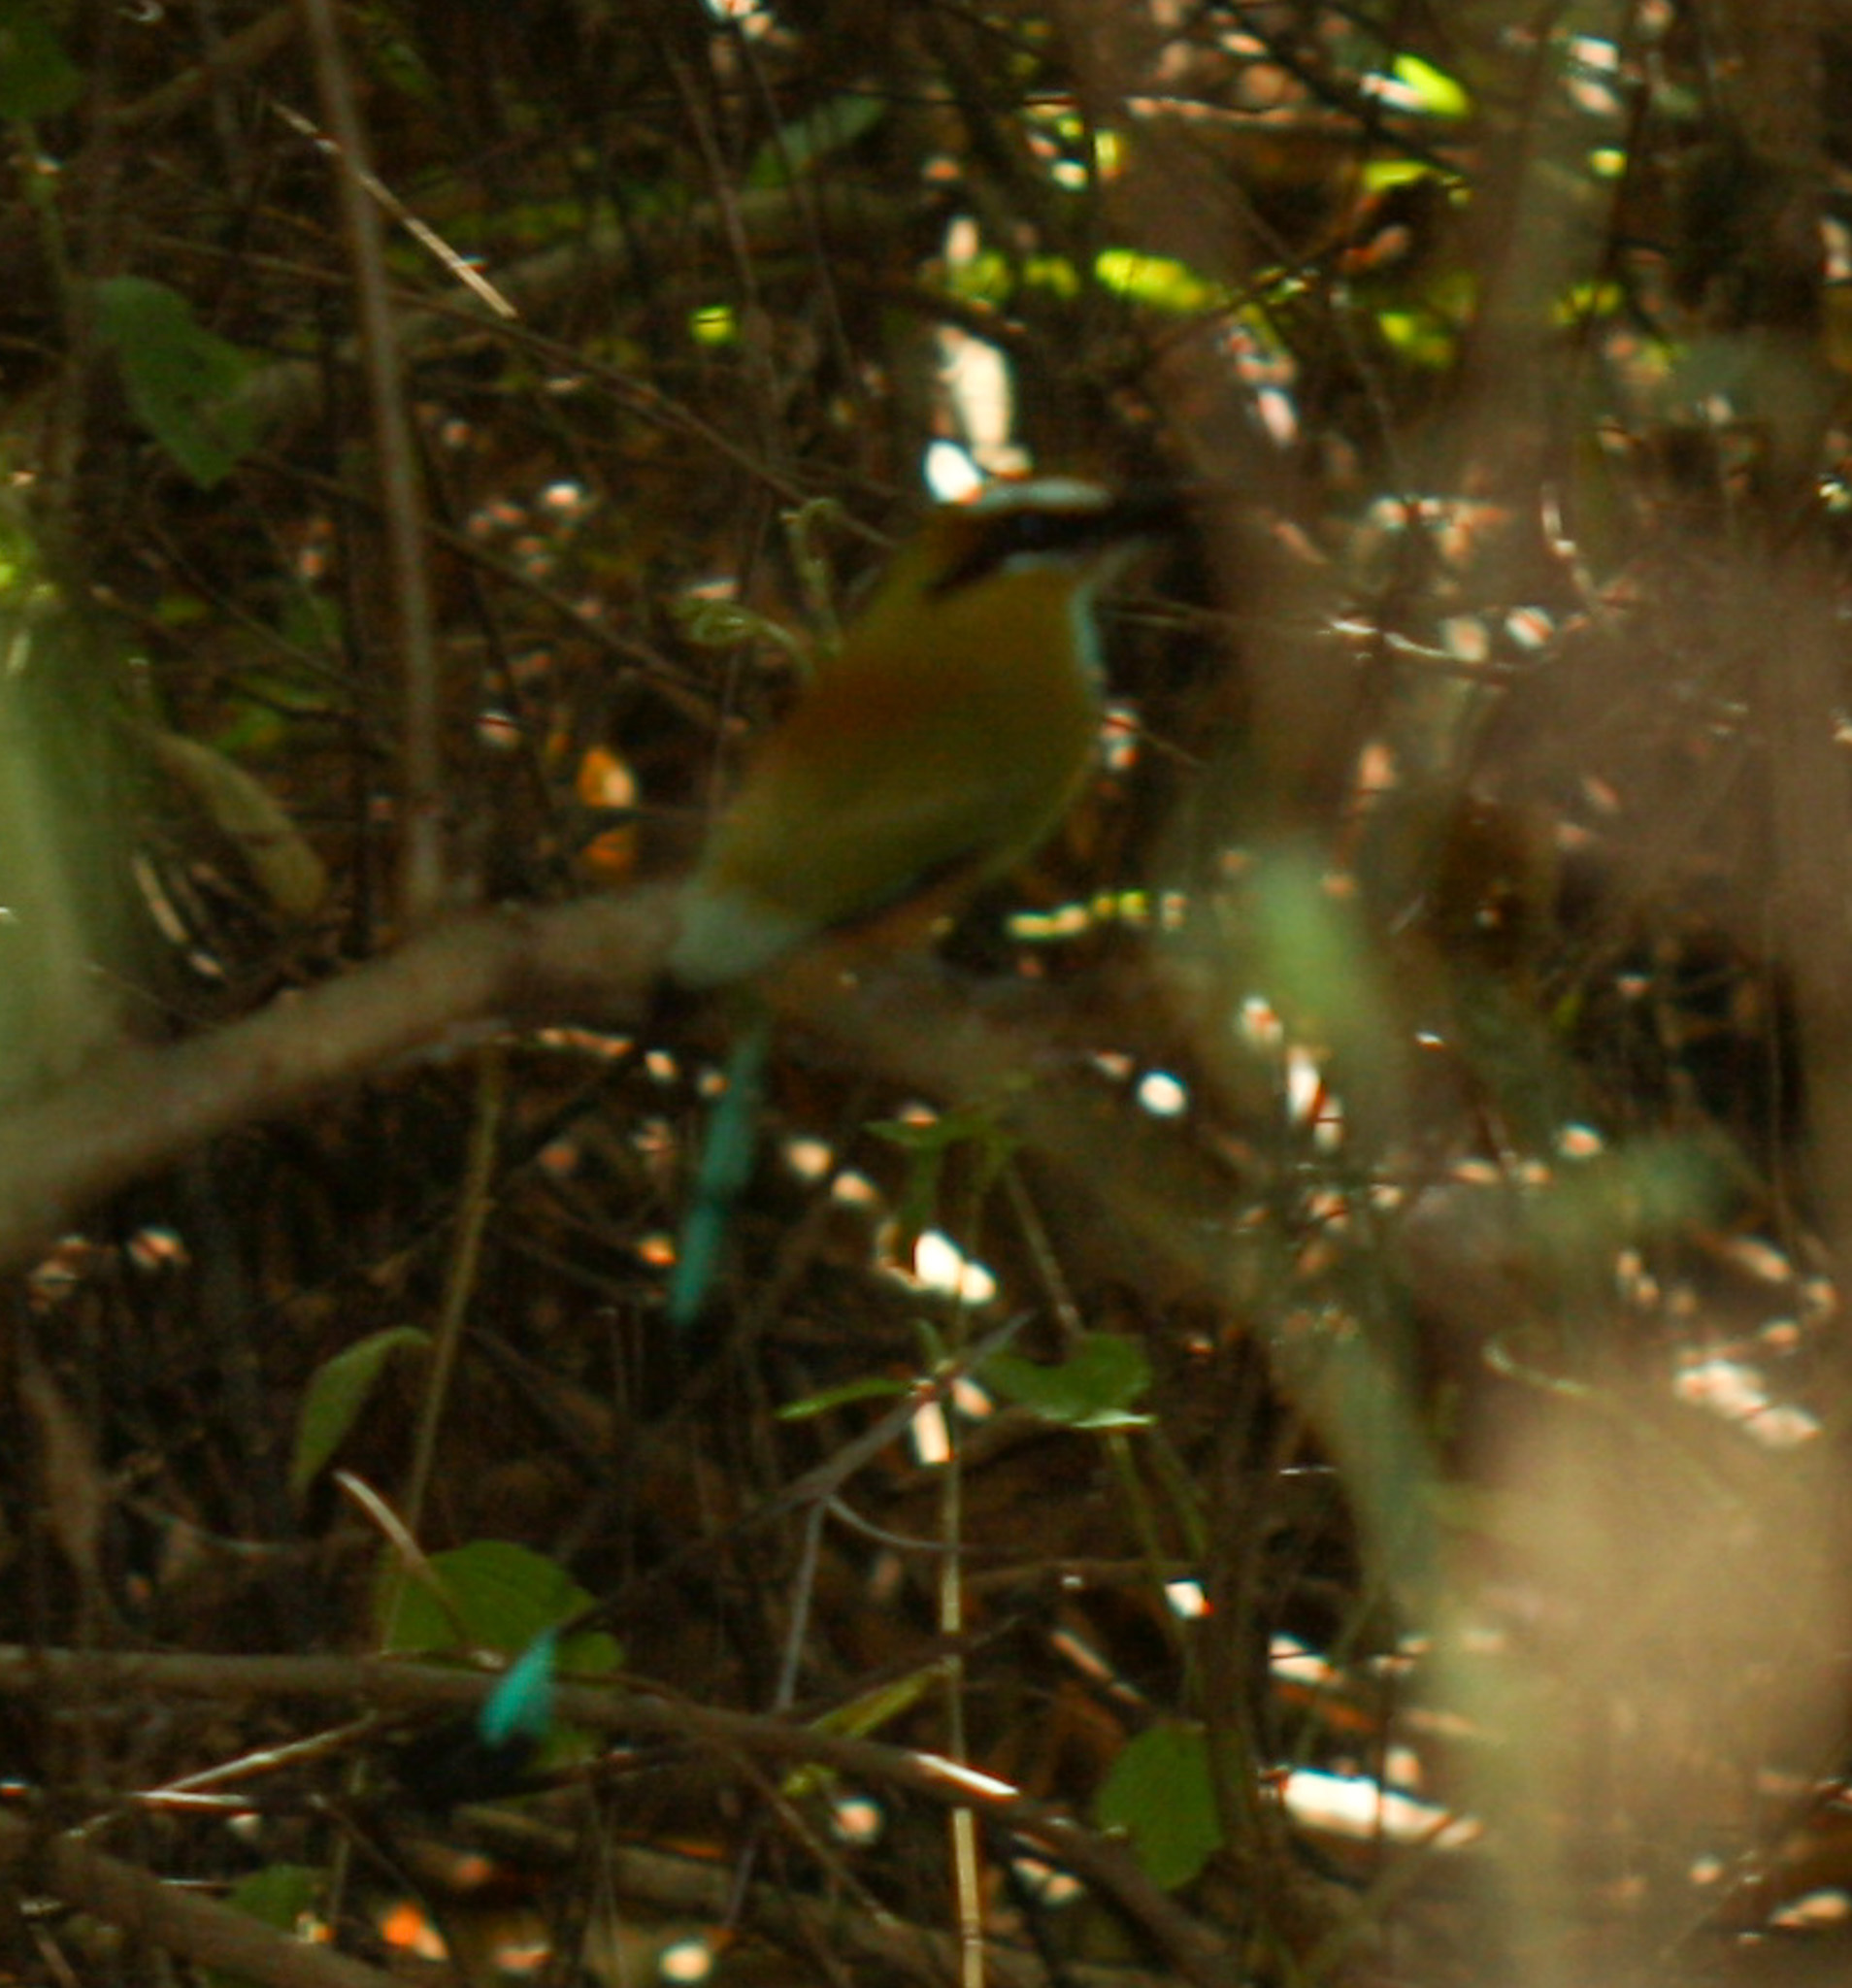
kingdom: Animalia
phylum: Chordata
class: Aves
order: Coraciiformes
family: Momotidae
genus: Eumomota
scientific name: Eumomota superciliosa
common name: Turquoise-browed motmot
